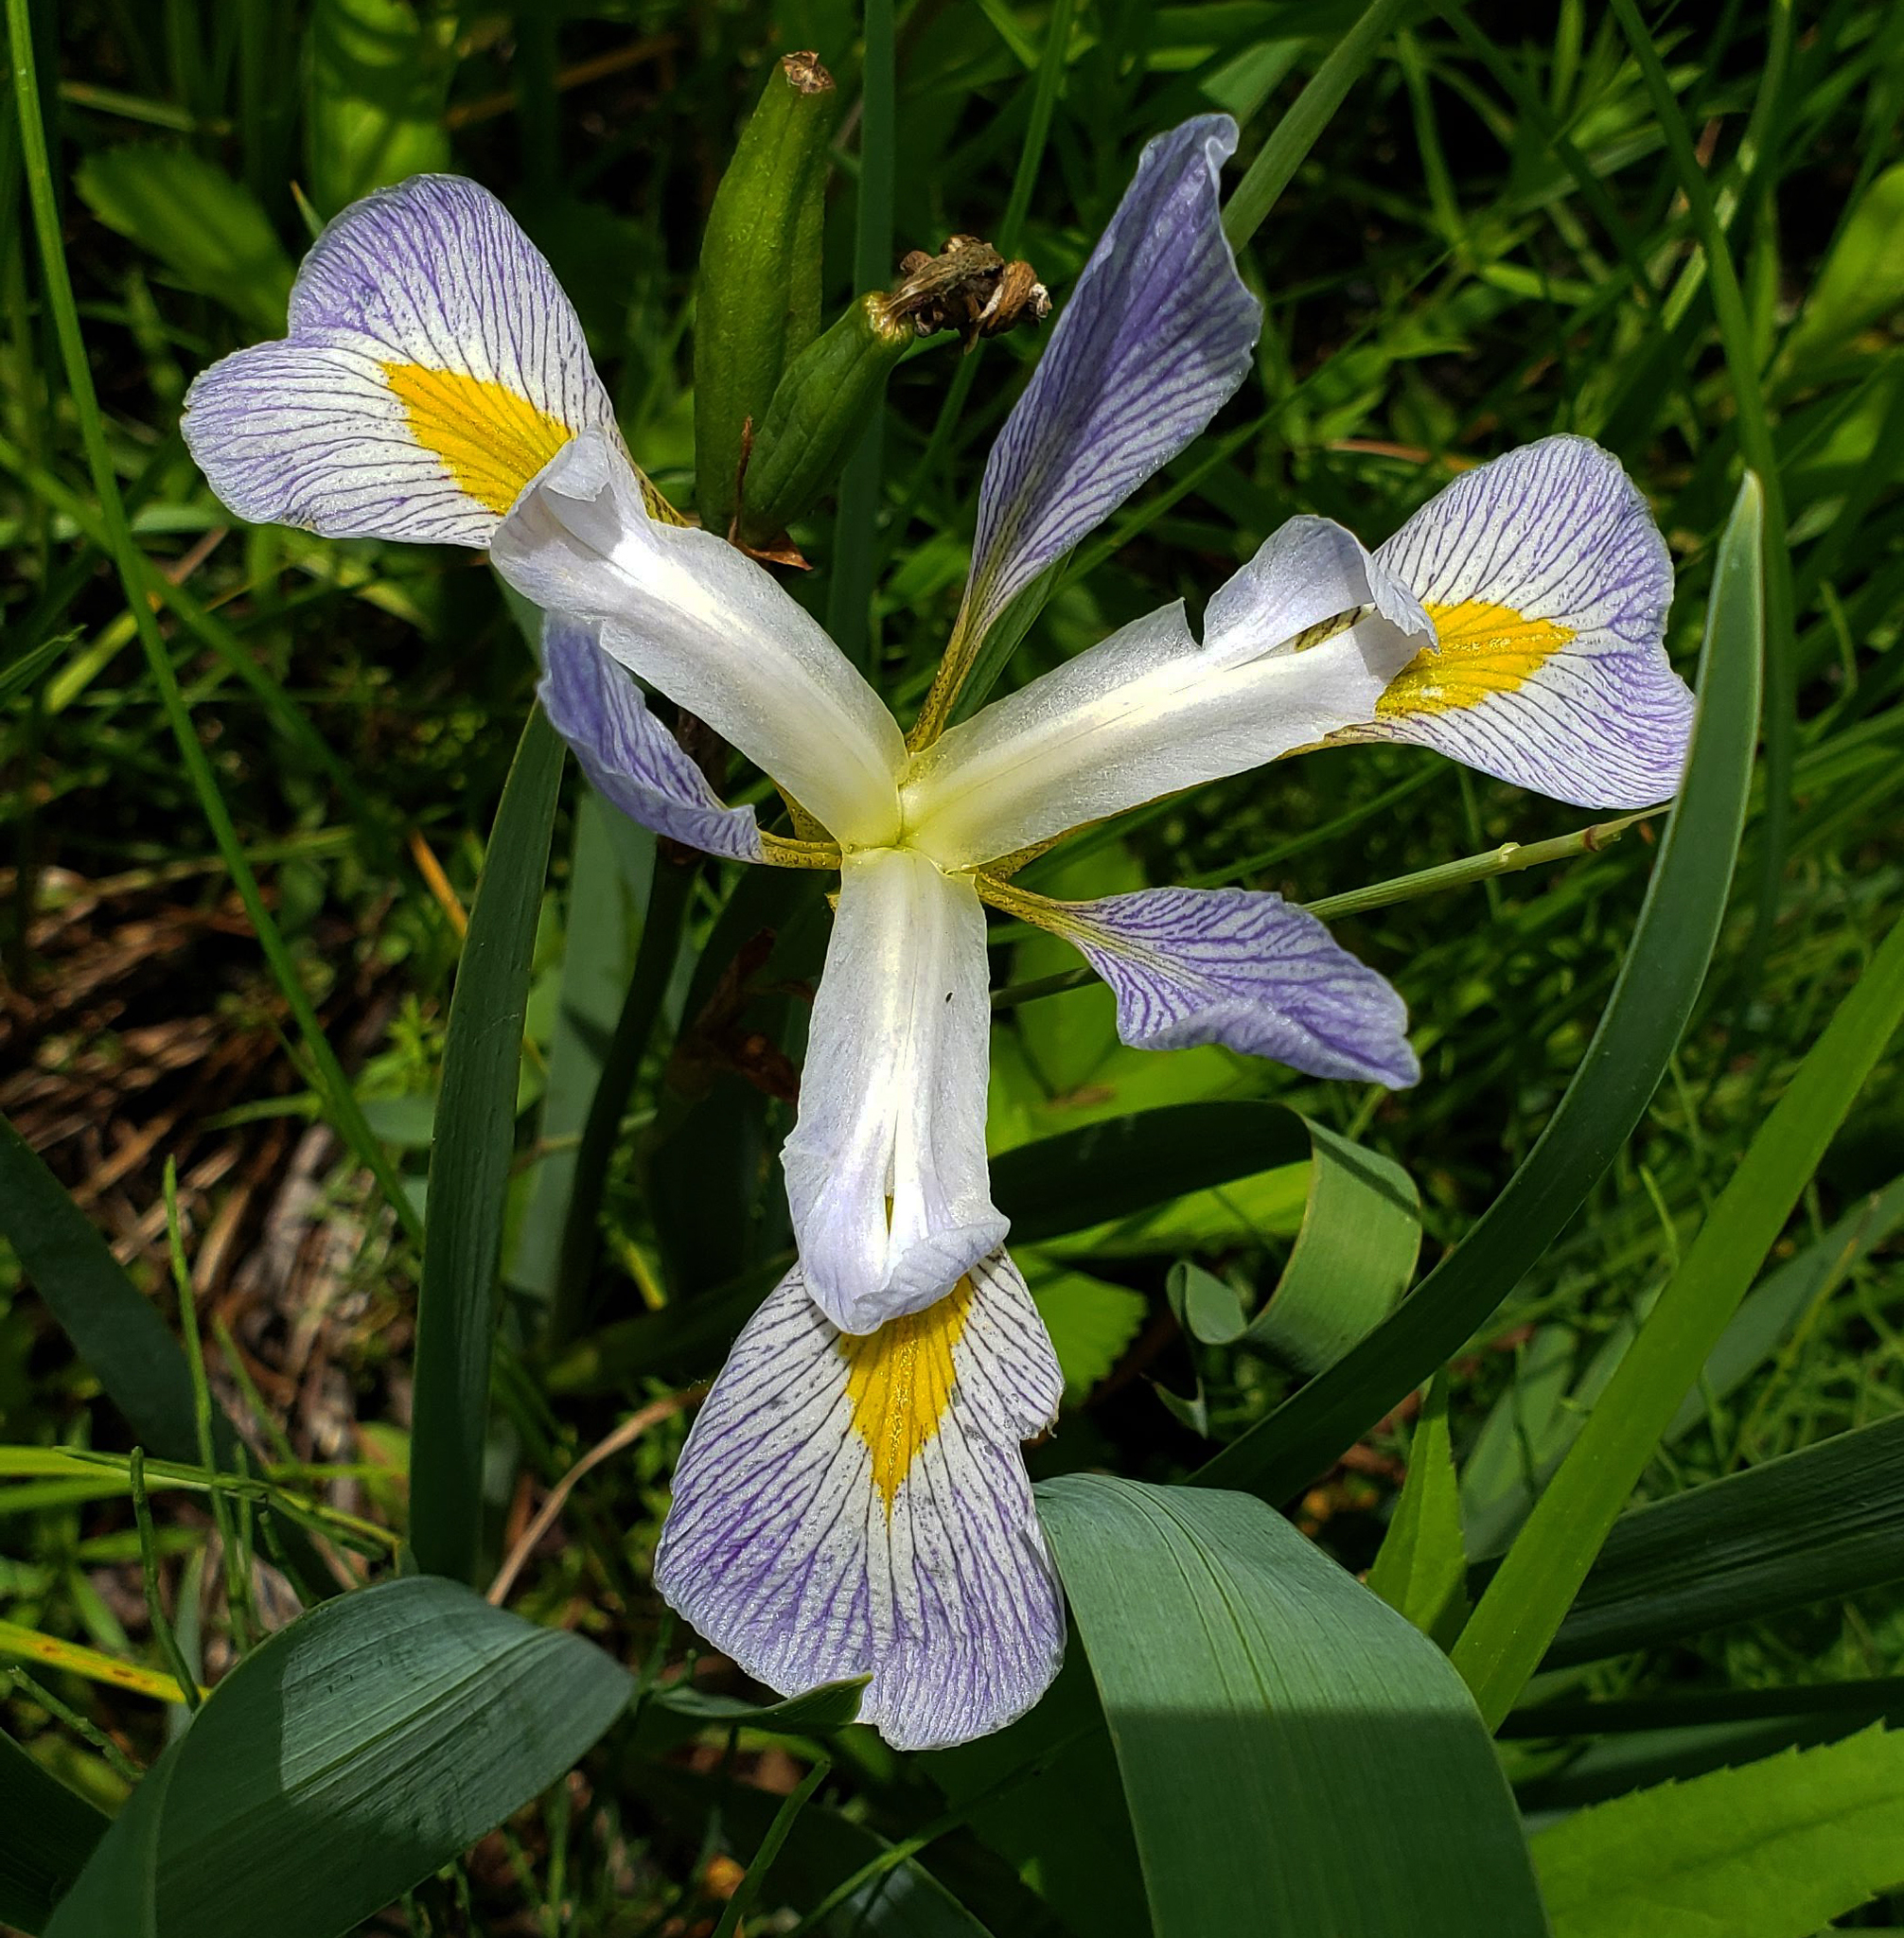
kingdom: Plantae
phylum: Tracheophyta
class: Liliopsida
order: Asparagales
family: Iridaceae
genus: Iris
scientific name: Iris virginica
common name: Southern blue flag
